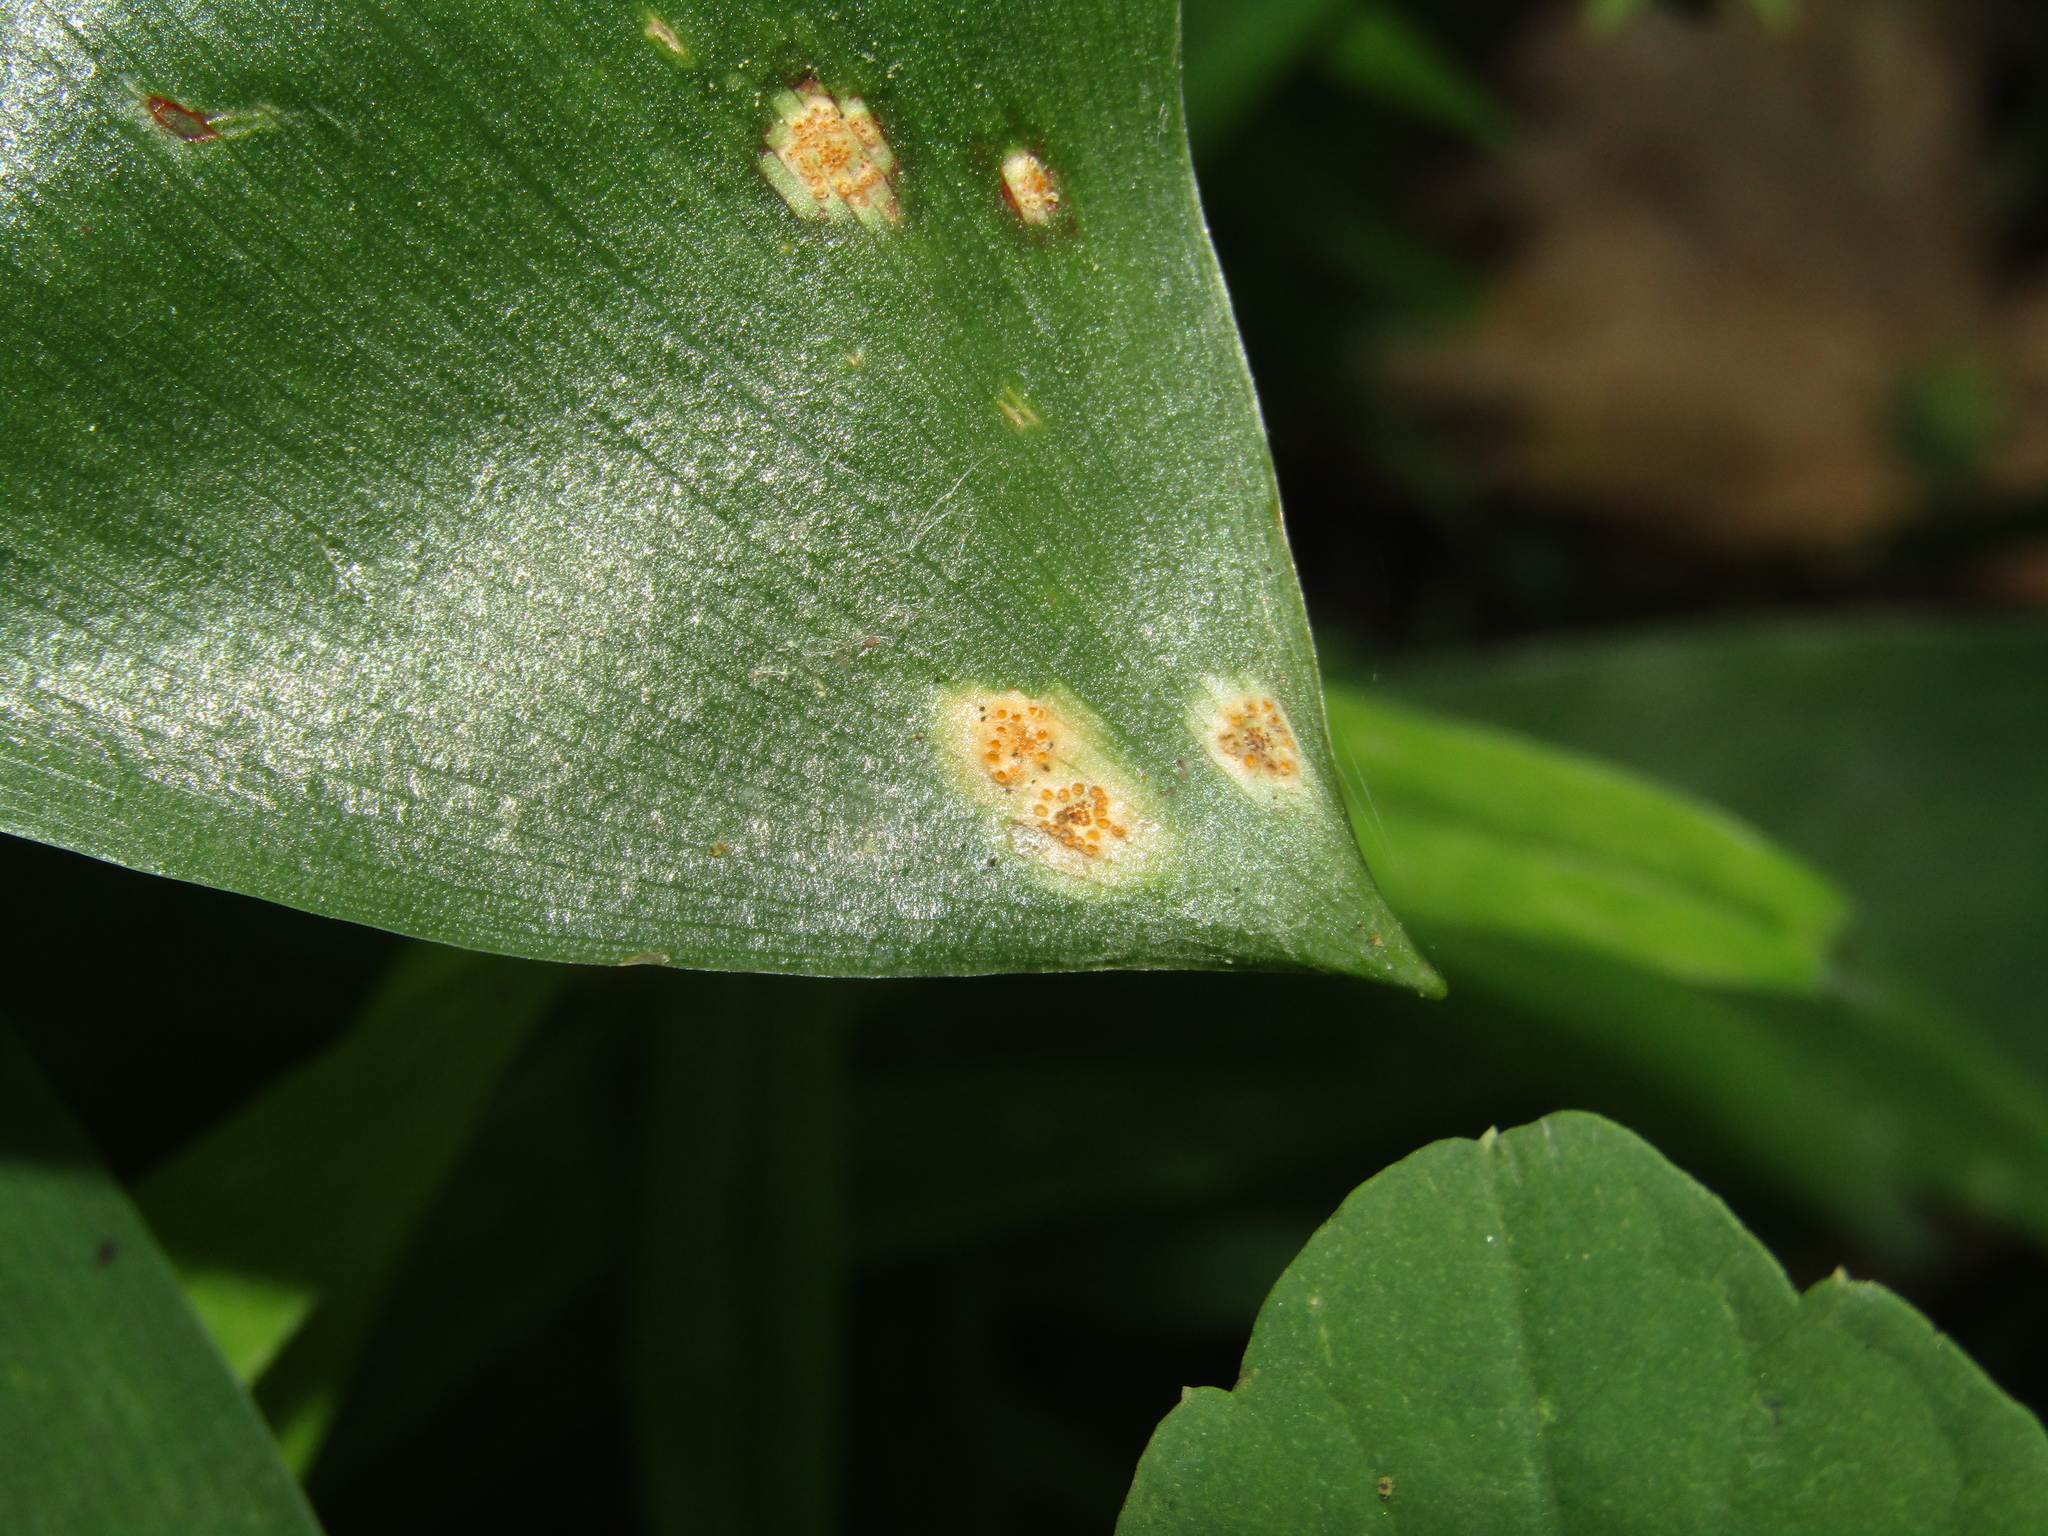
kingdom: Fungi
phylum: Basidiomycota
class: Pucciniomycetes
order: Pucciniales
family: Pucciniaceae
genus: Puccinia
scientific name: Puccinia sessilis
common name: Arum rust
